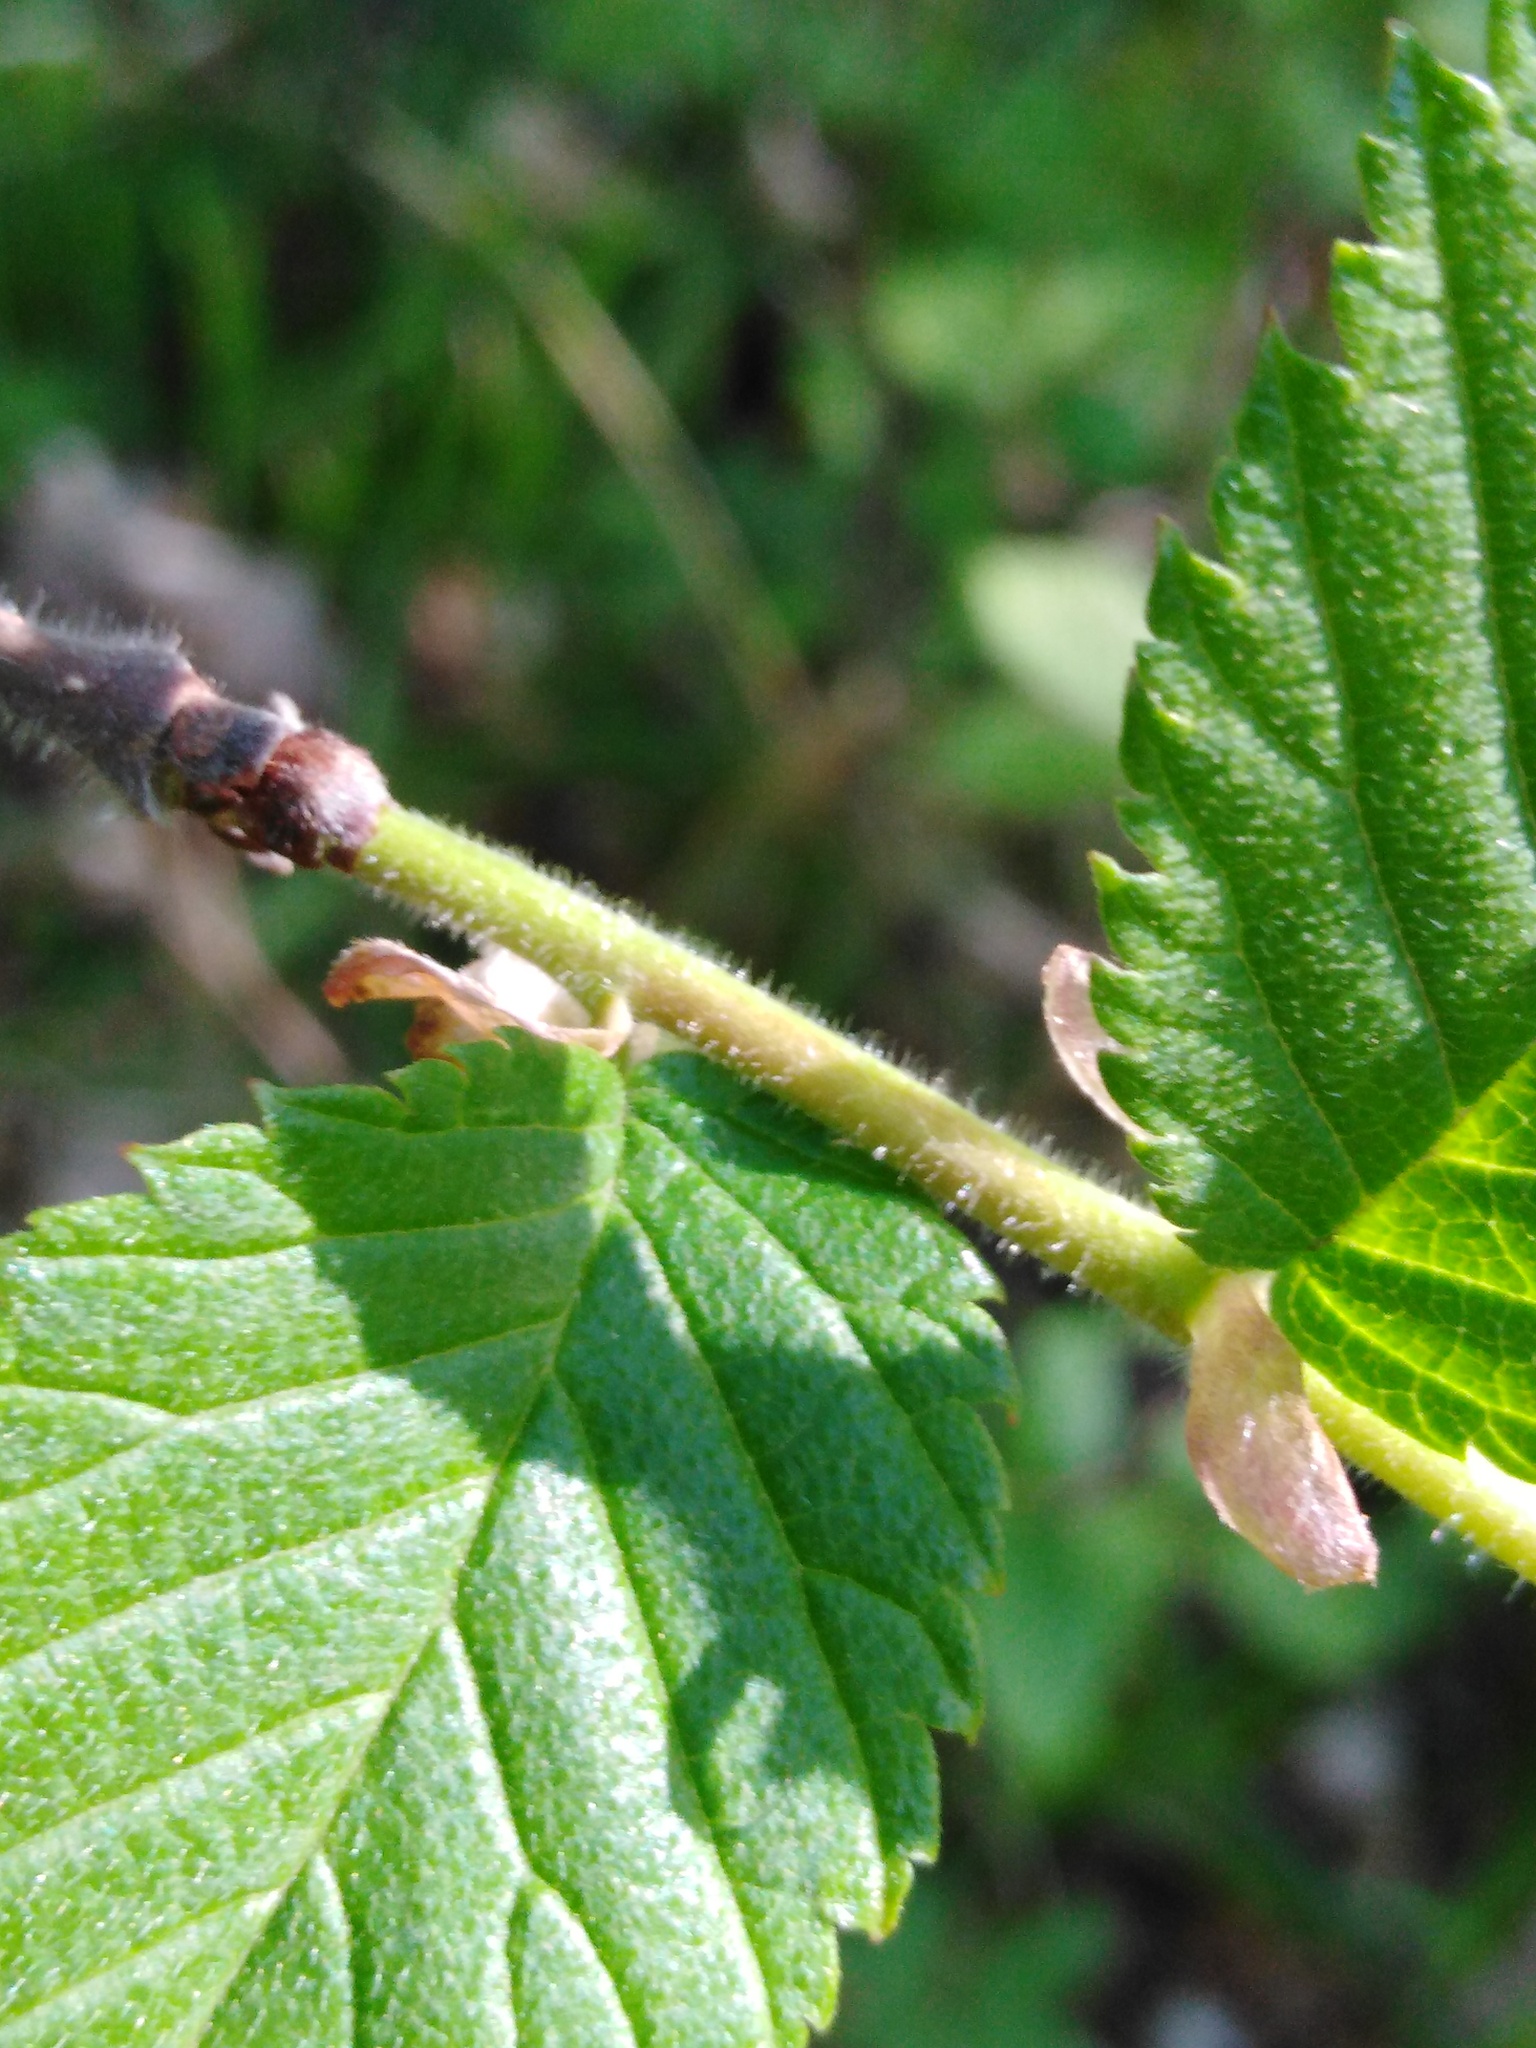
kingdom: Plantae
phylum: Tracheophyta
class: Magnoliopsida
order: Fagales
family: Betulaceae
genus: Corylus
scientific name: Corylus avellana
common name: European hazel
